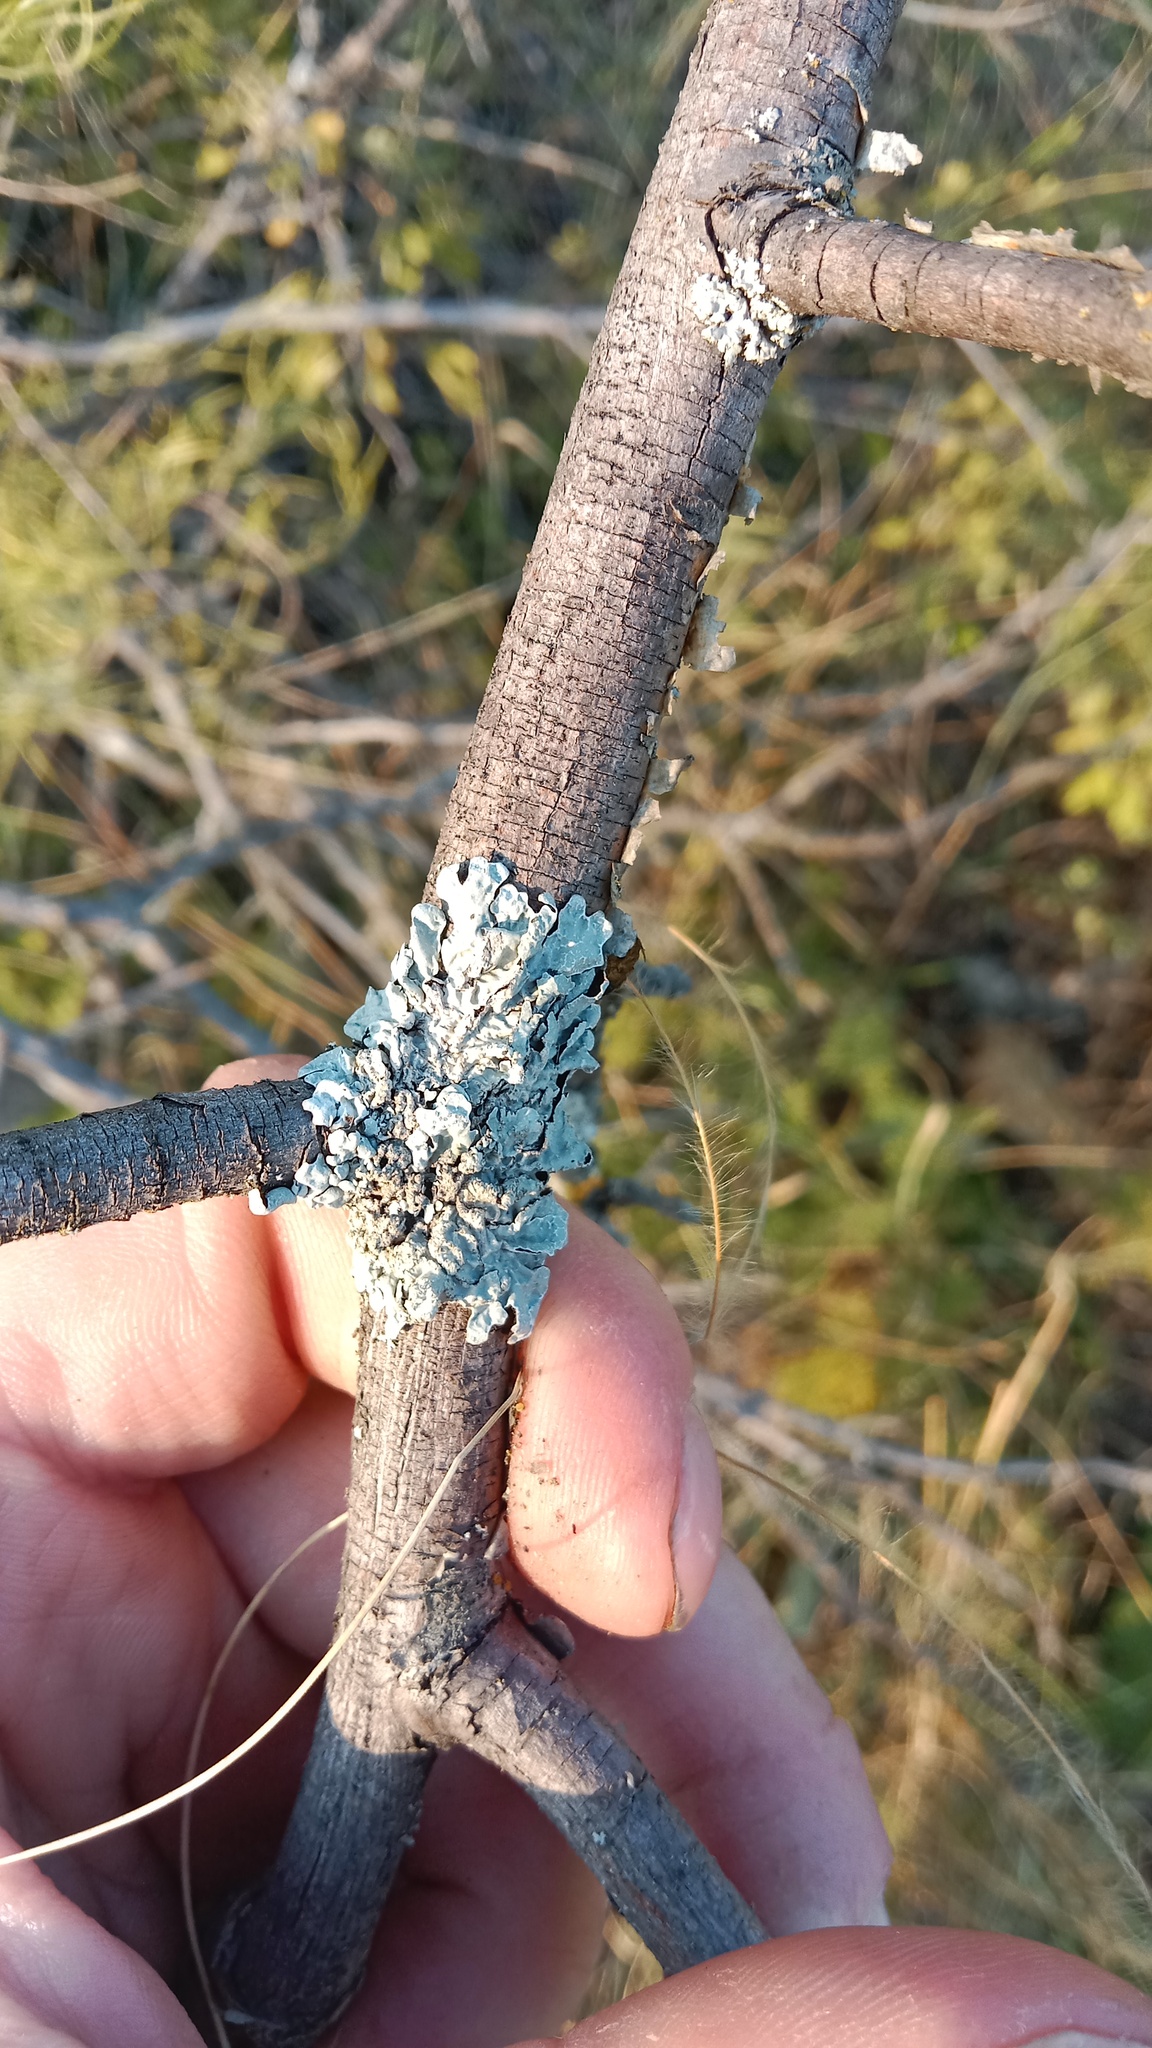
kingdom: Fungi
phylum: Ascomycota
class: Lecanoromycetes
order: Lecanorales
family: Parmeliaceae
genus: Parmelia
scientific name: Parmelia sulcata
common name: Netted shield lichen
